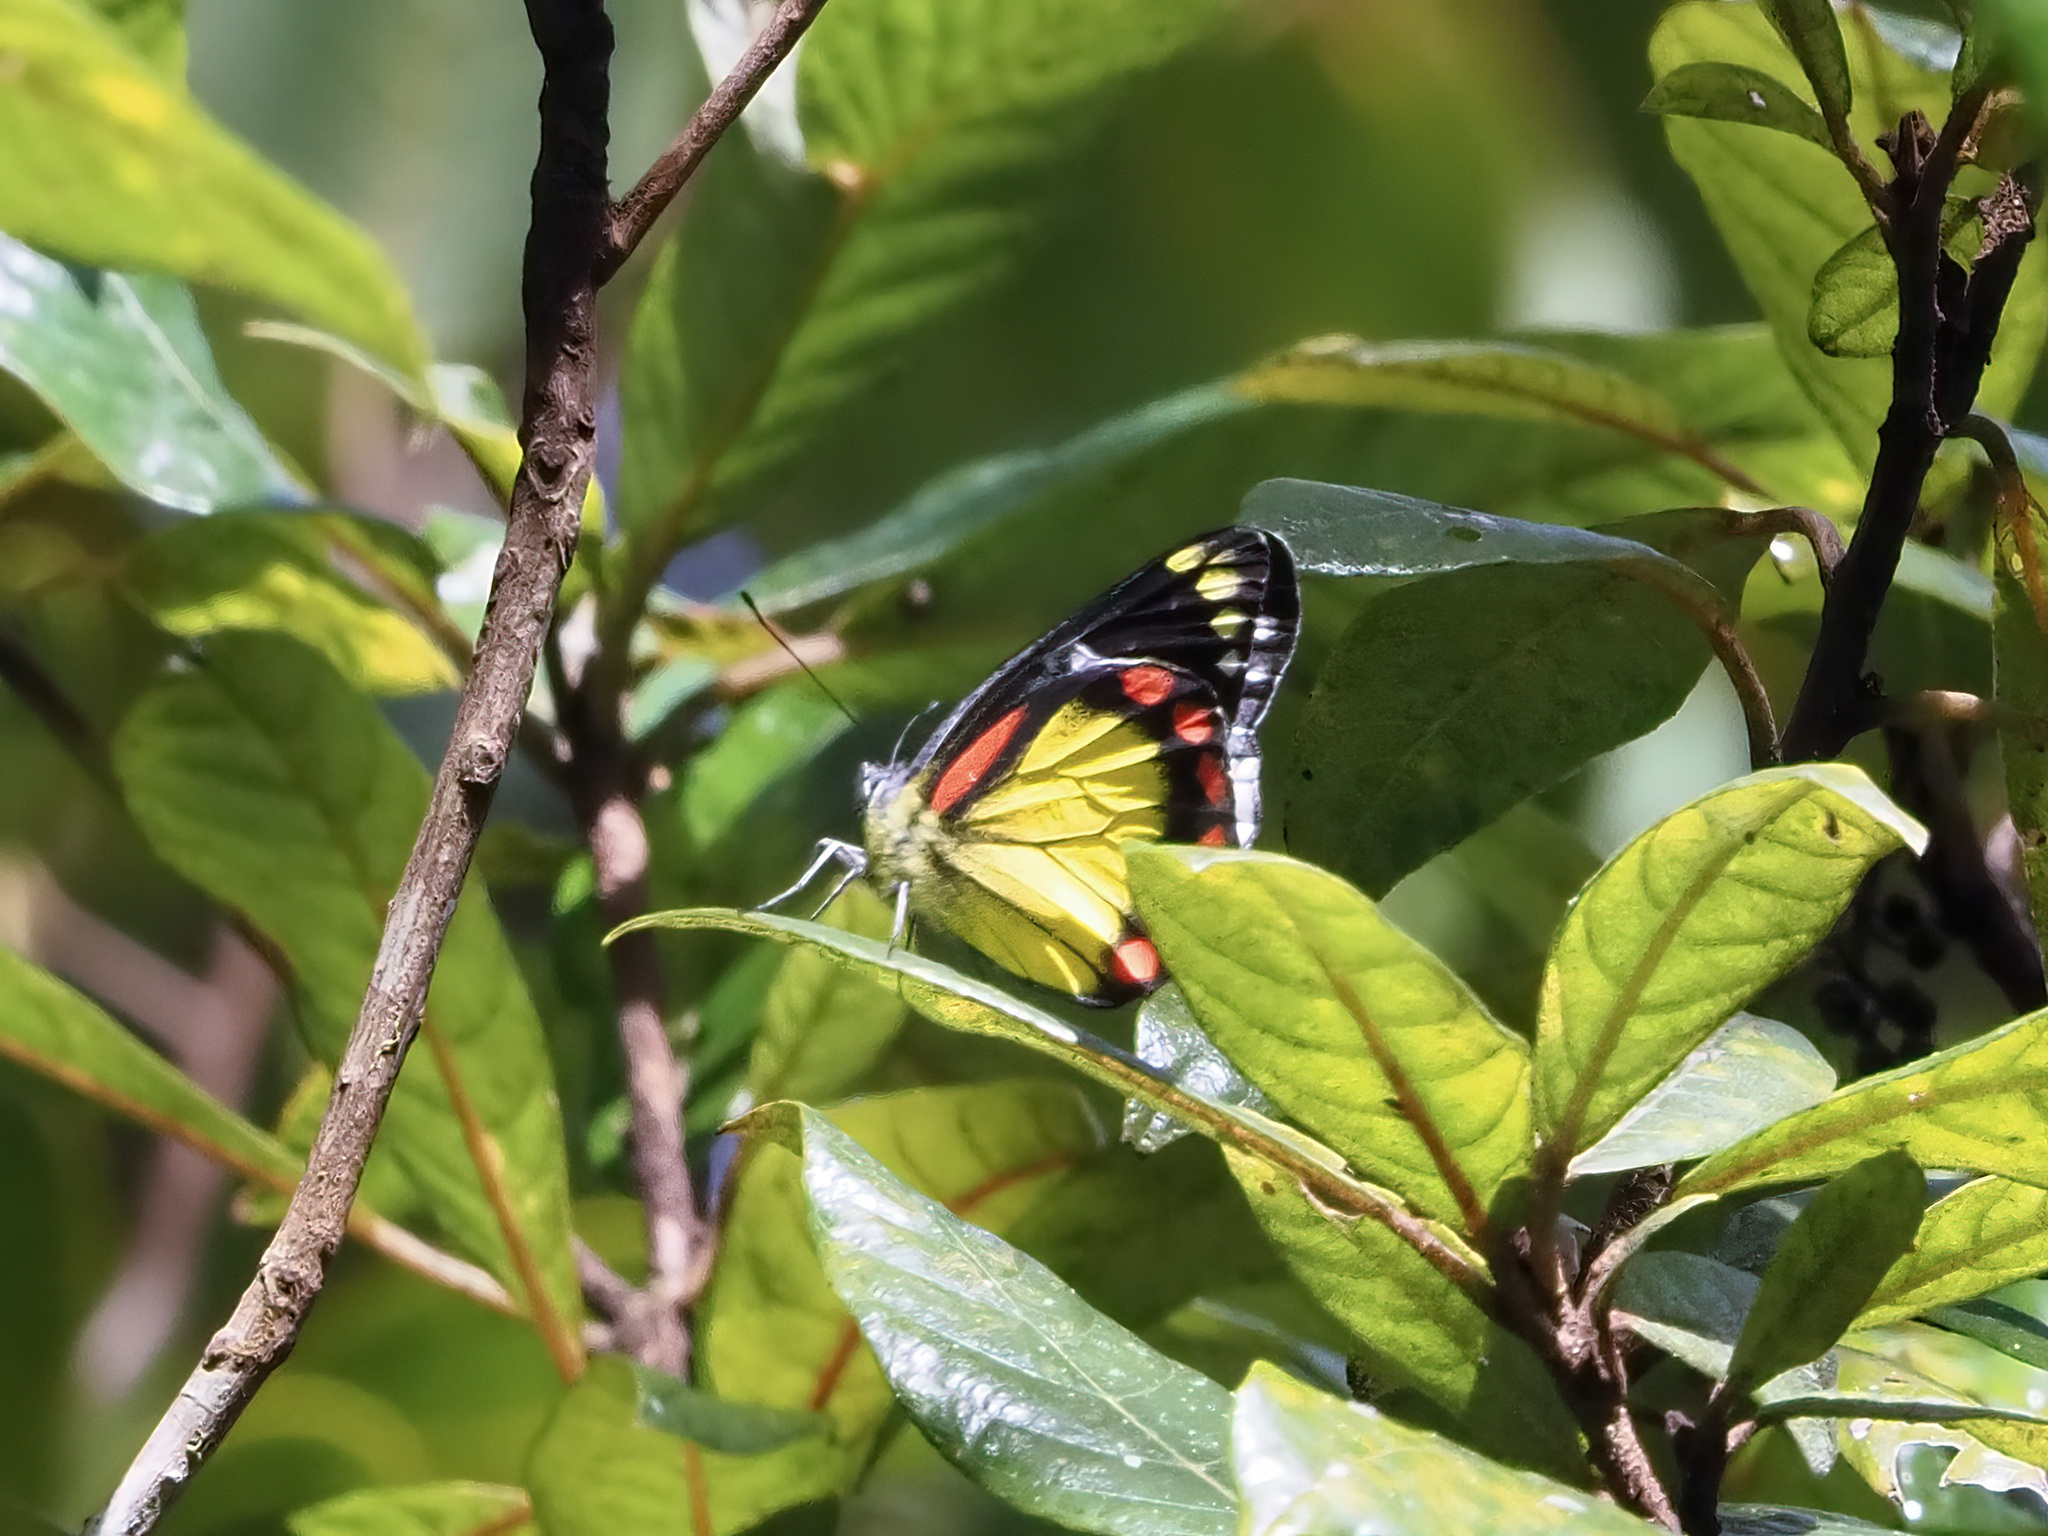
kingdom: Animalia
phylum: Arthropoda
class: Insecta
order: Lepidoptera
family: Pieridae
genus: Delias
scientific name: Delias eumolpe
